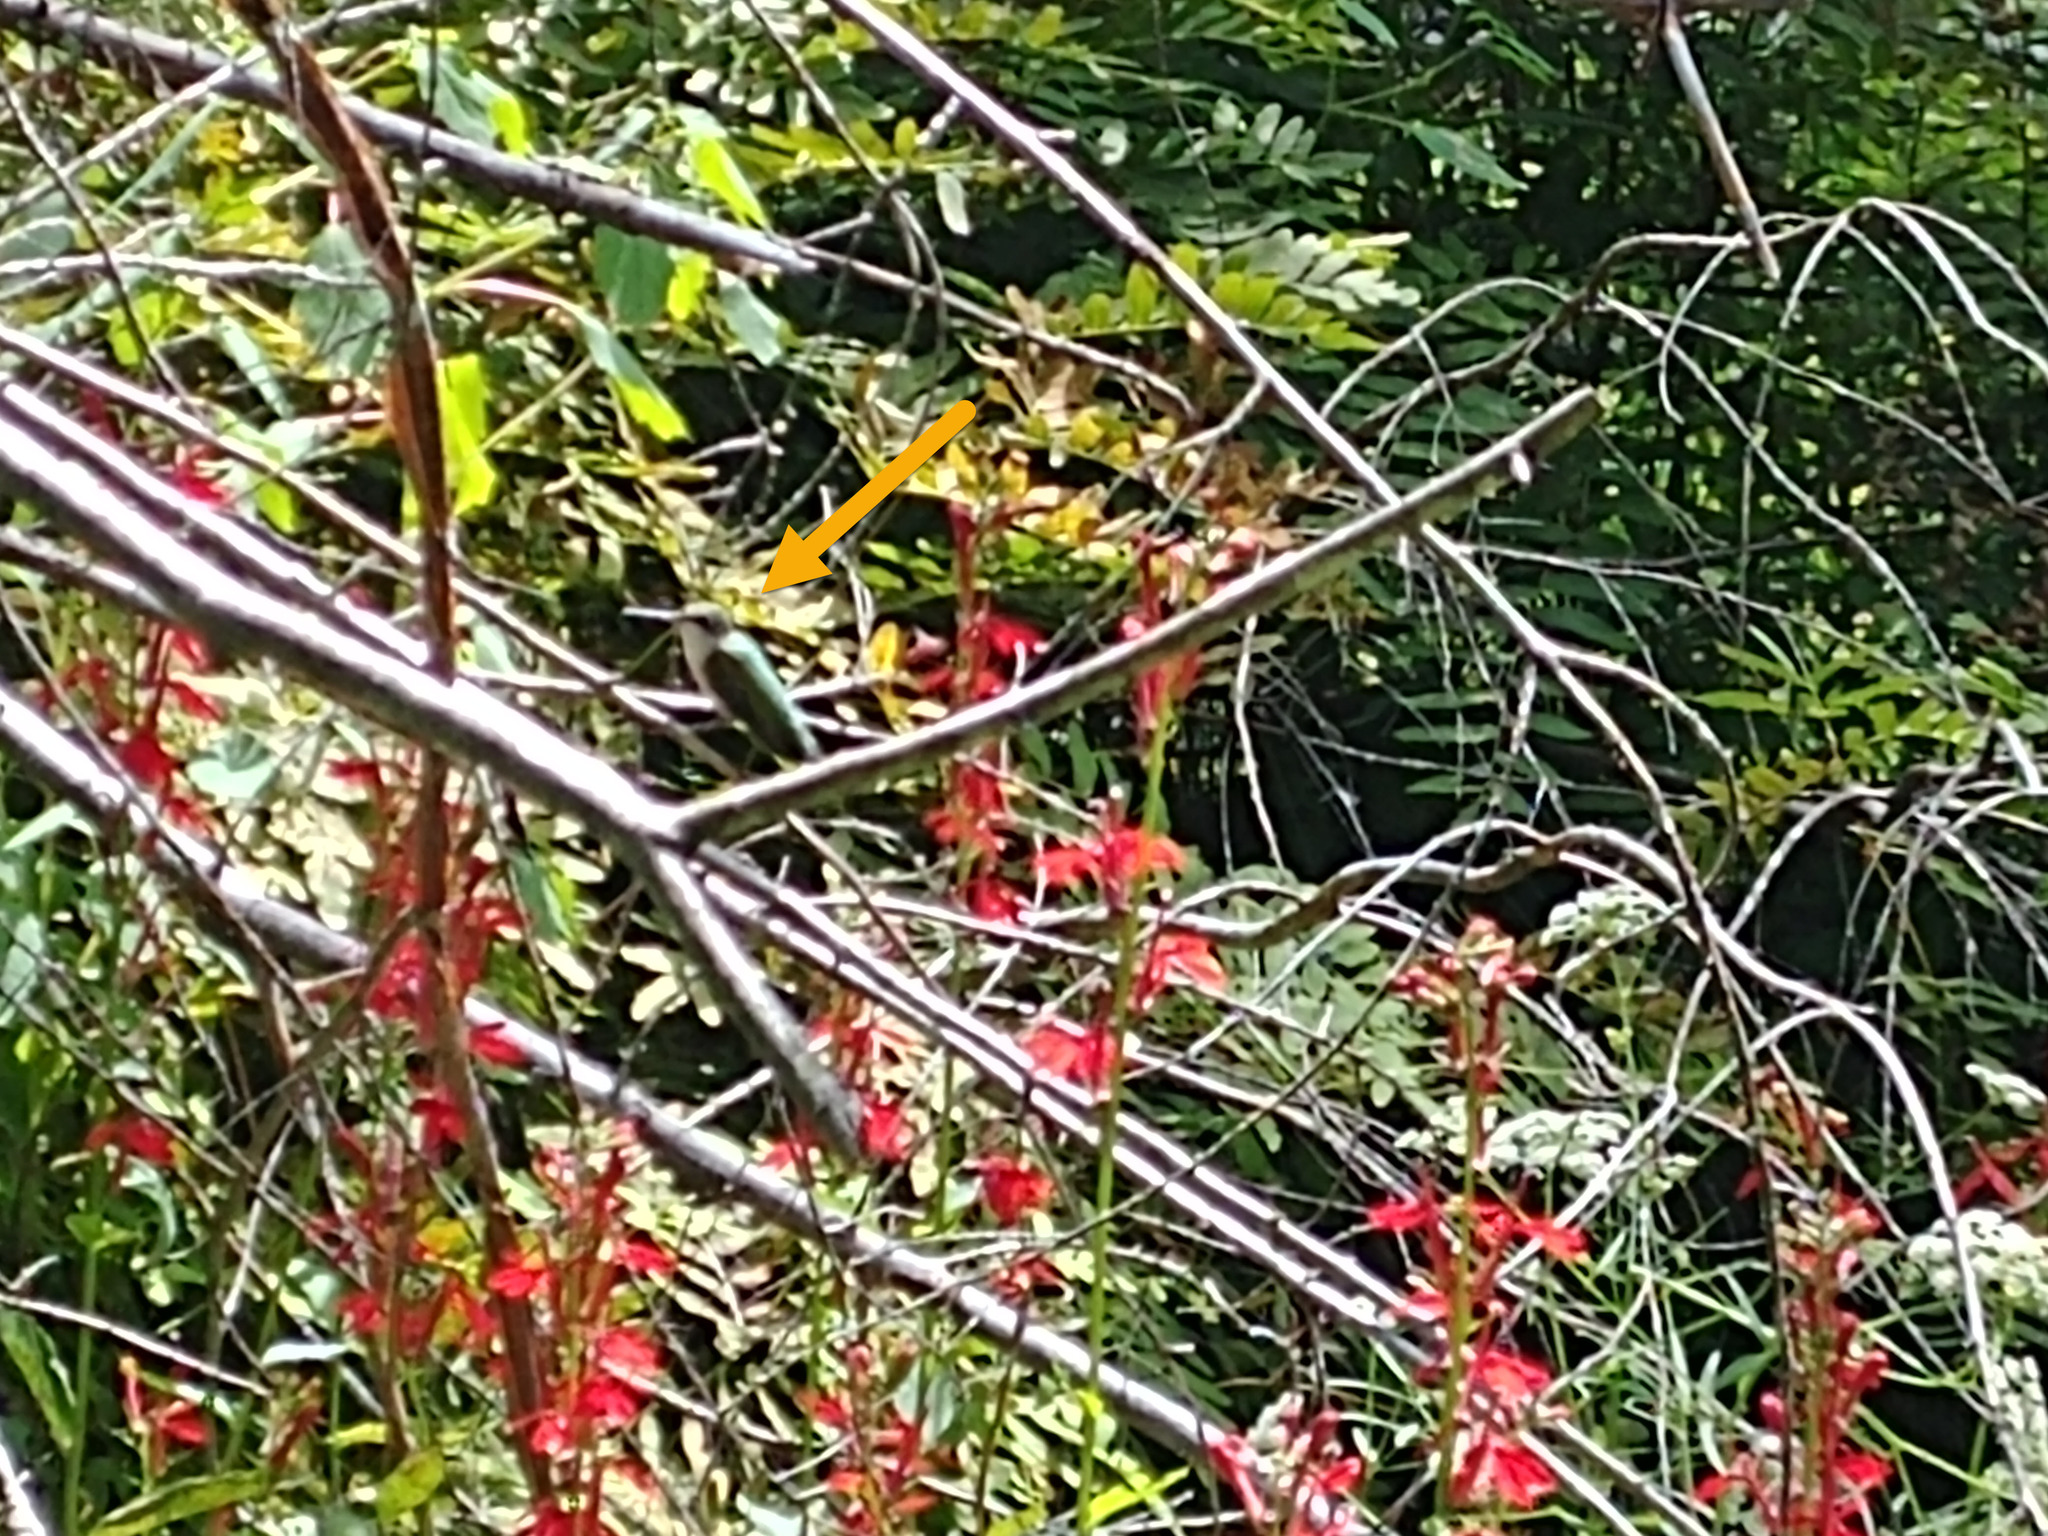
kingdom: Animalia
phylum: Chordata
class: Aves
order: Apodiformes
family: Trochilidae
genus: Archilochus
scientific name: Archilochus colubris
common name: Ruby-throated hummingbird
